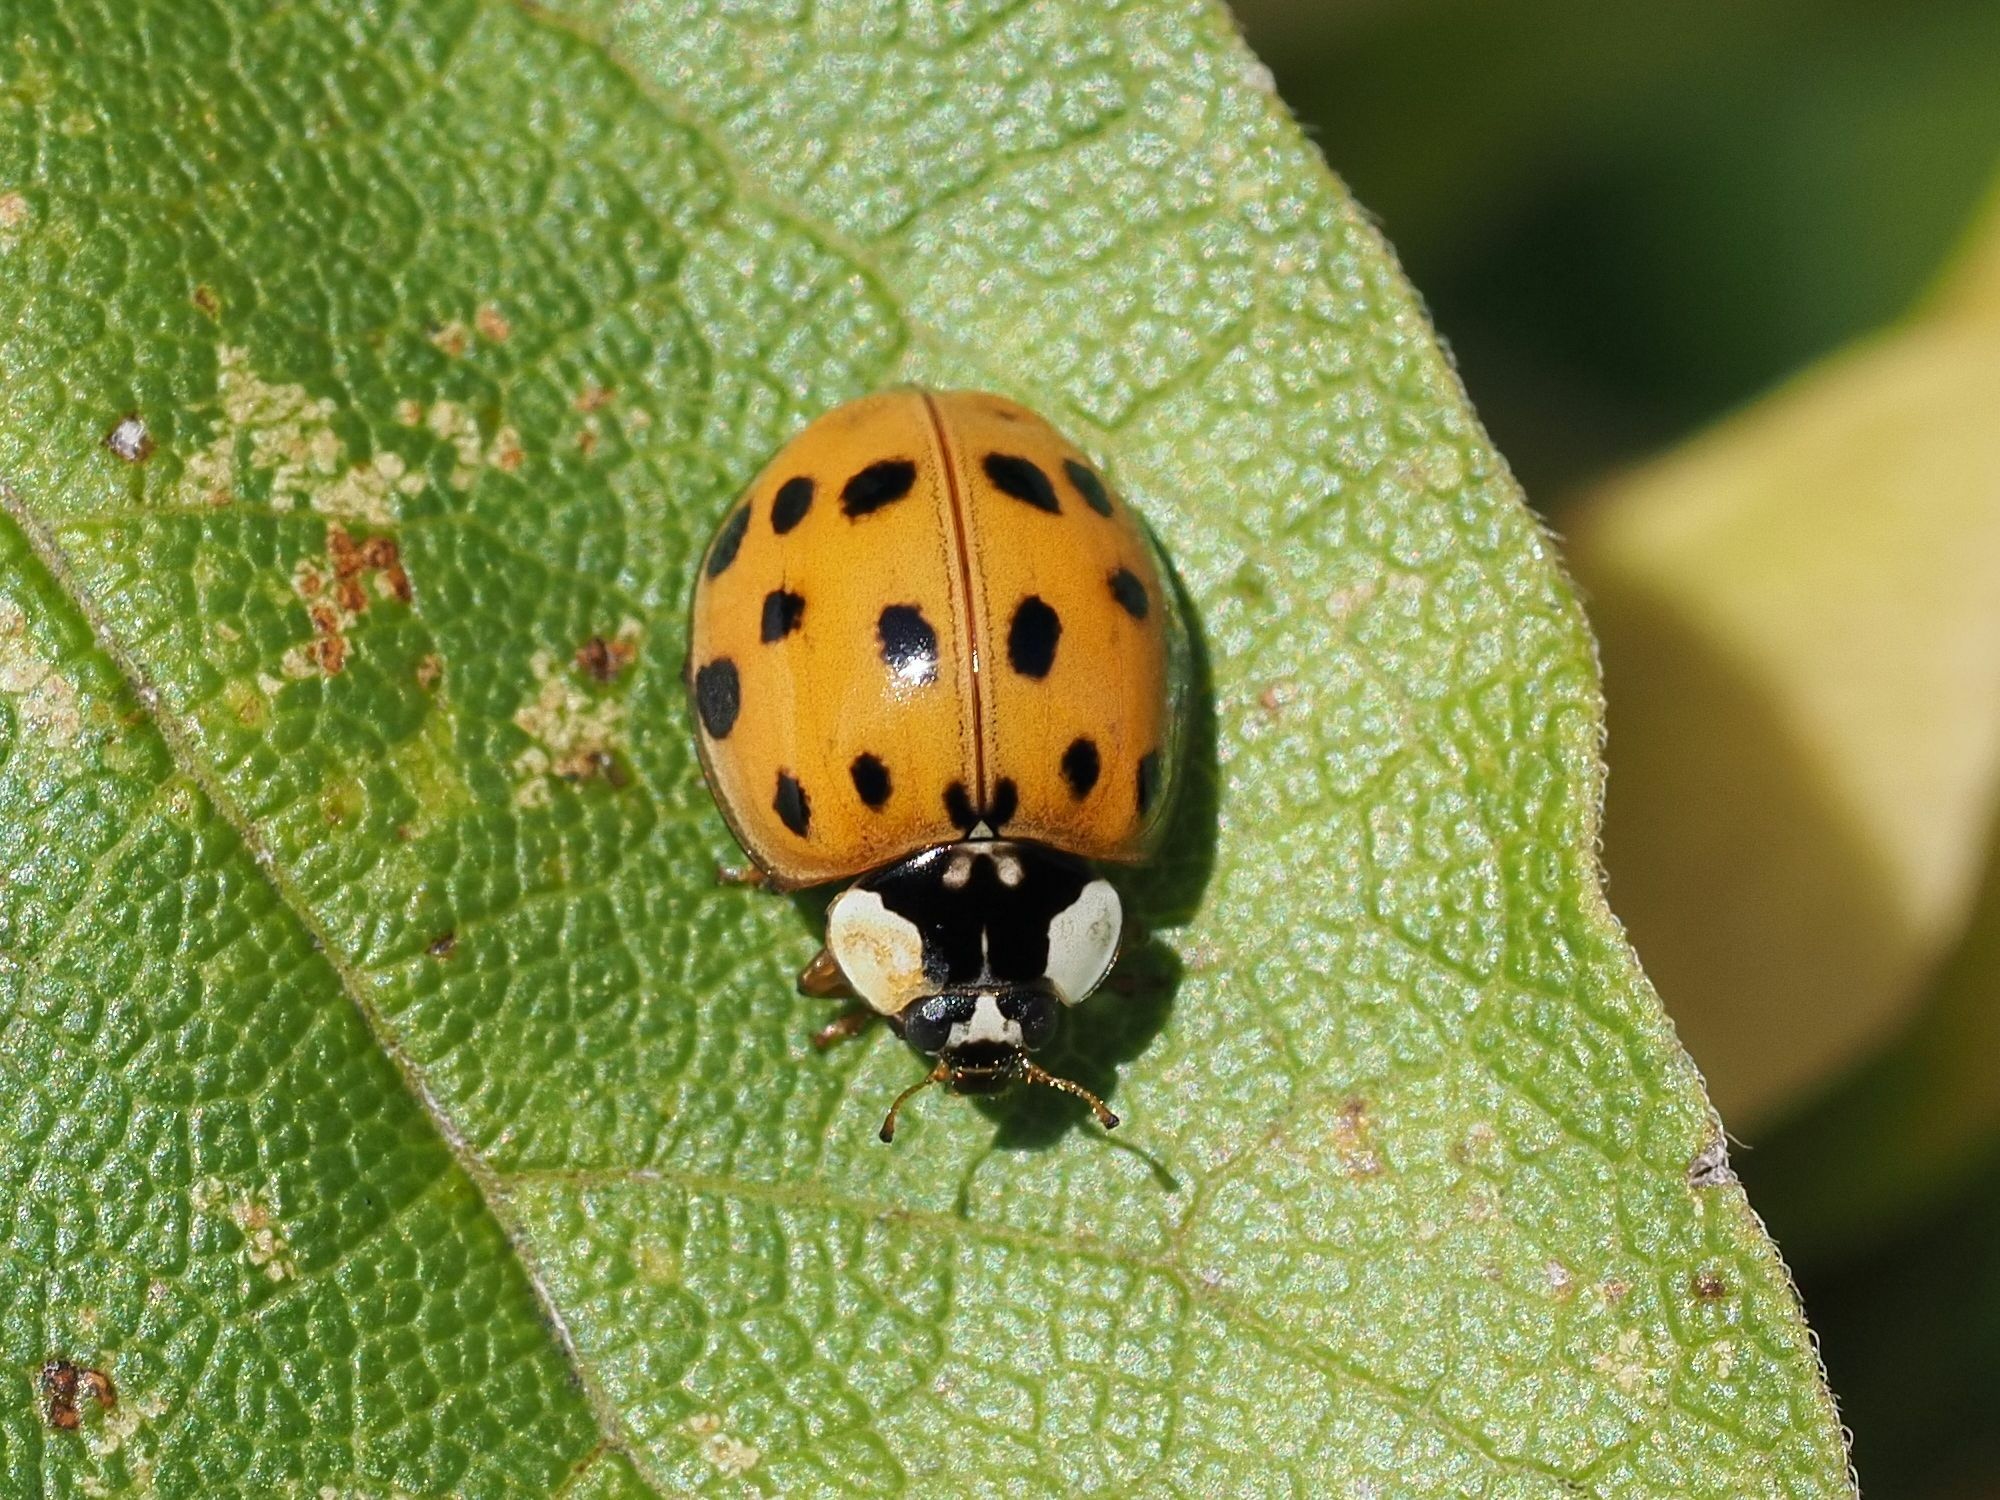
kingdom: Animalia
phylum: Arthropoda
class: Insecta
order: Coleoptera
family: Coccinellidae
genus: Harmonia
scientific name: Harmonia axyridis
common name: Harlequin ladybird
